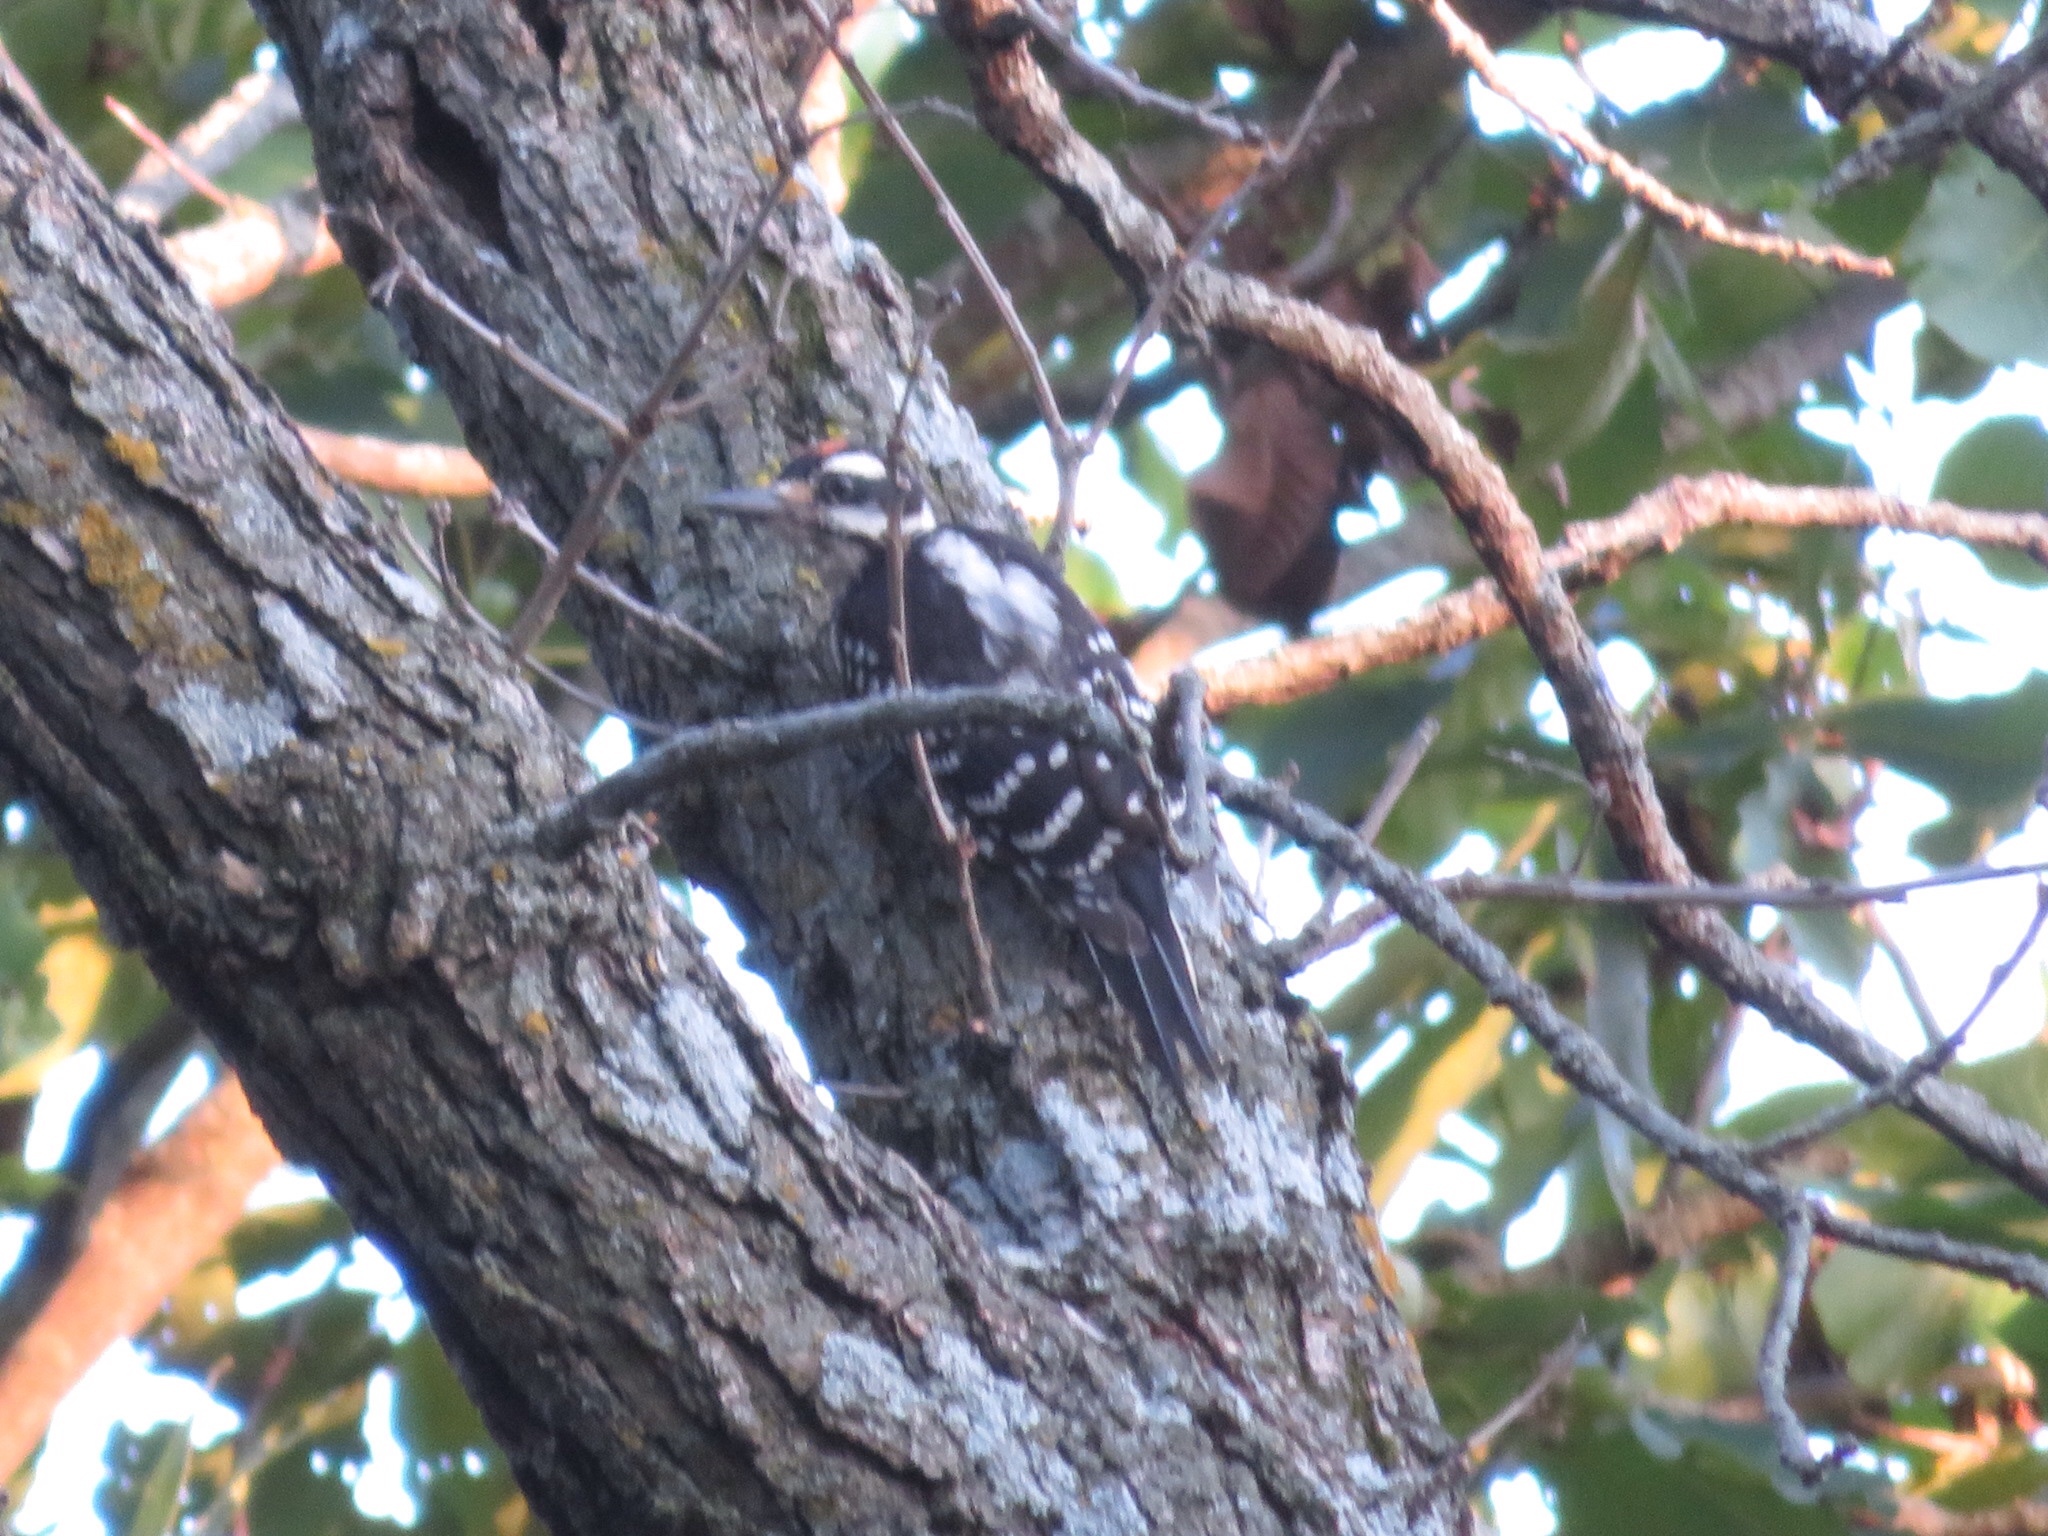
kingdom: Animalia
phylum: Chordata
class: Aves
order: Piciformes
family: Picidae
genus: Leuconotopicus
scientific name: Leuconotopicus villosus
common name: Hairy woodpecker
